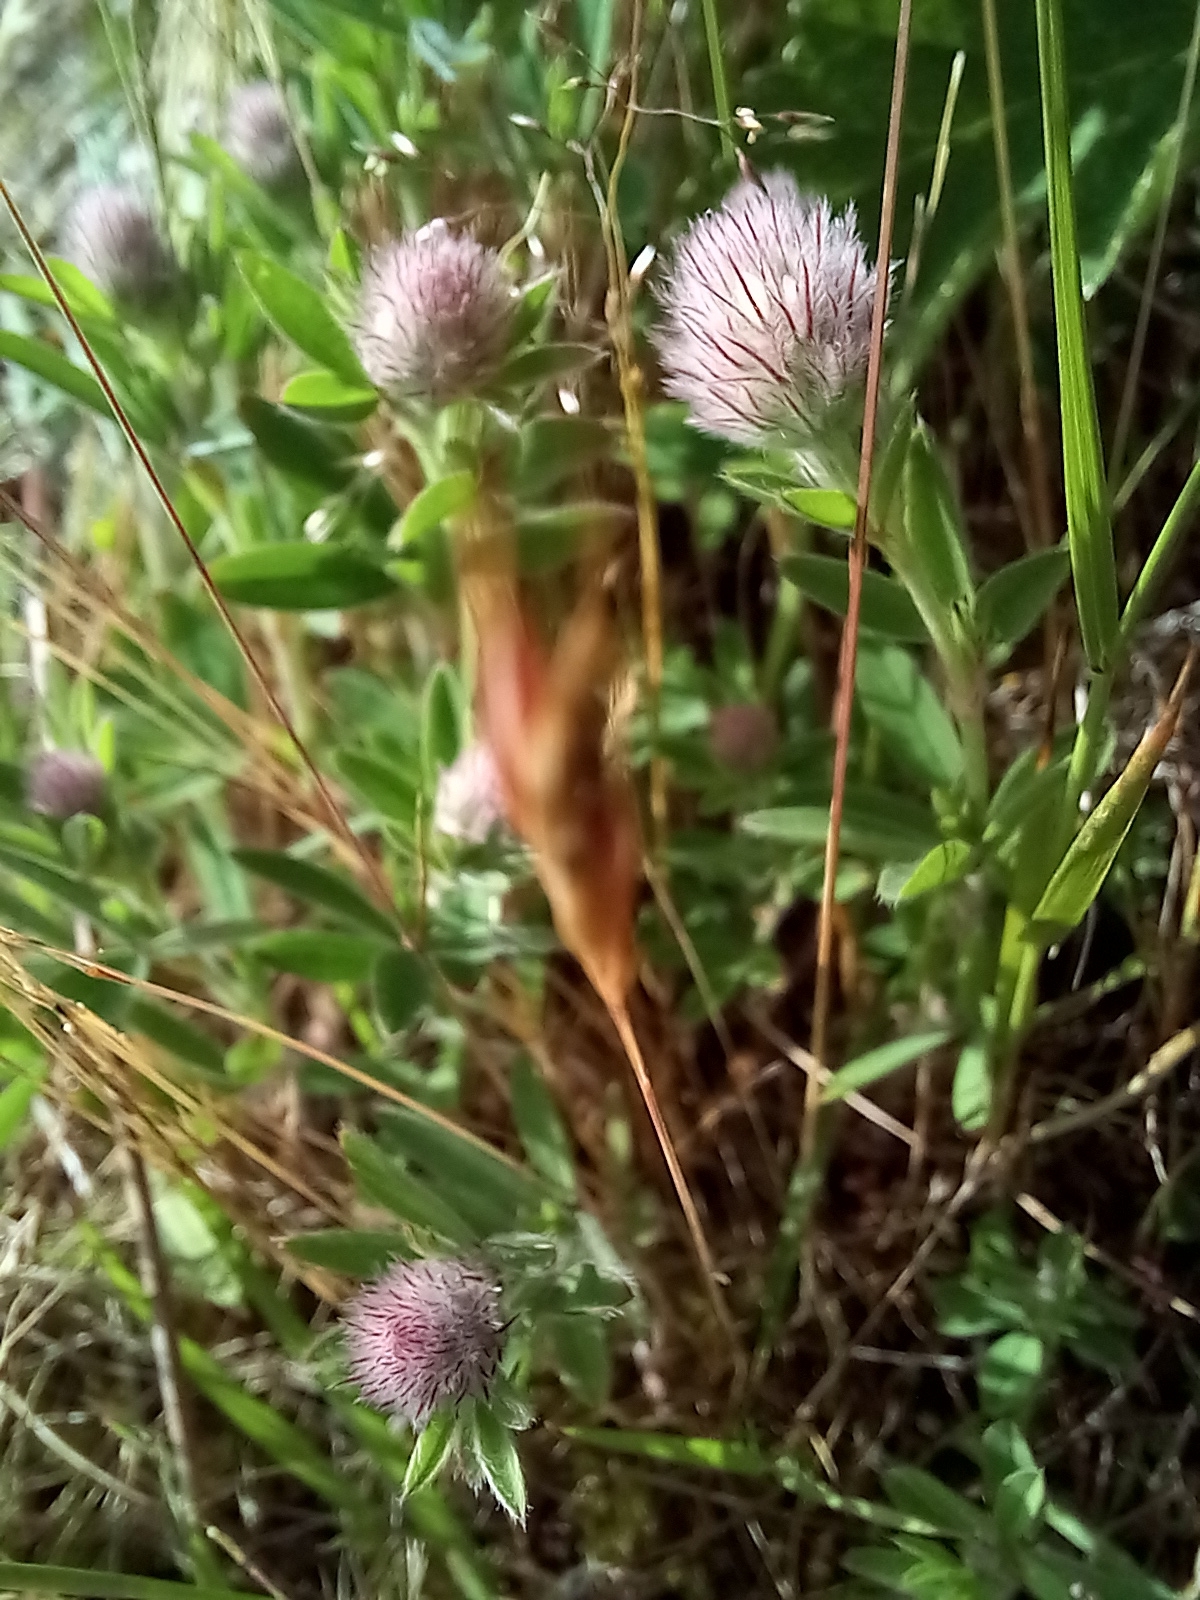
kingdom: Plantae
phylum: Tracheophyta
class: Magnoliopsida
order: Fabales
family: Fabaceae
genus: Trifolium
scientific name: Trifolium arvense
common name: Hare's-foot clover
